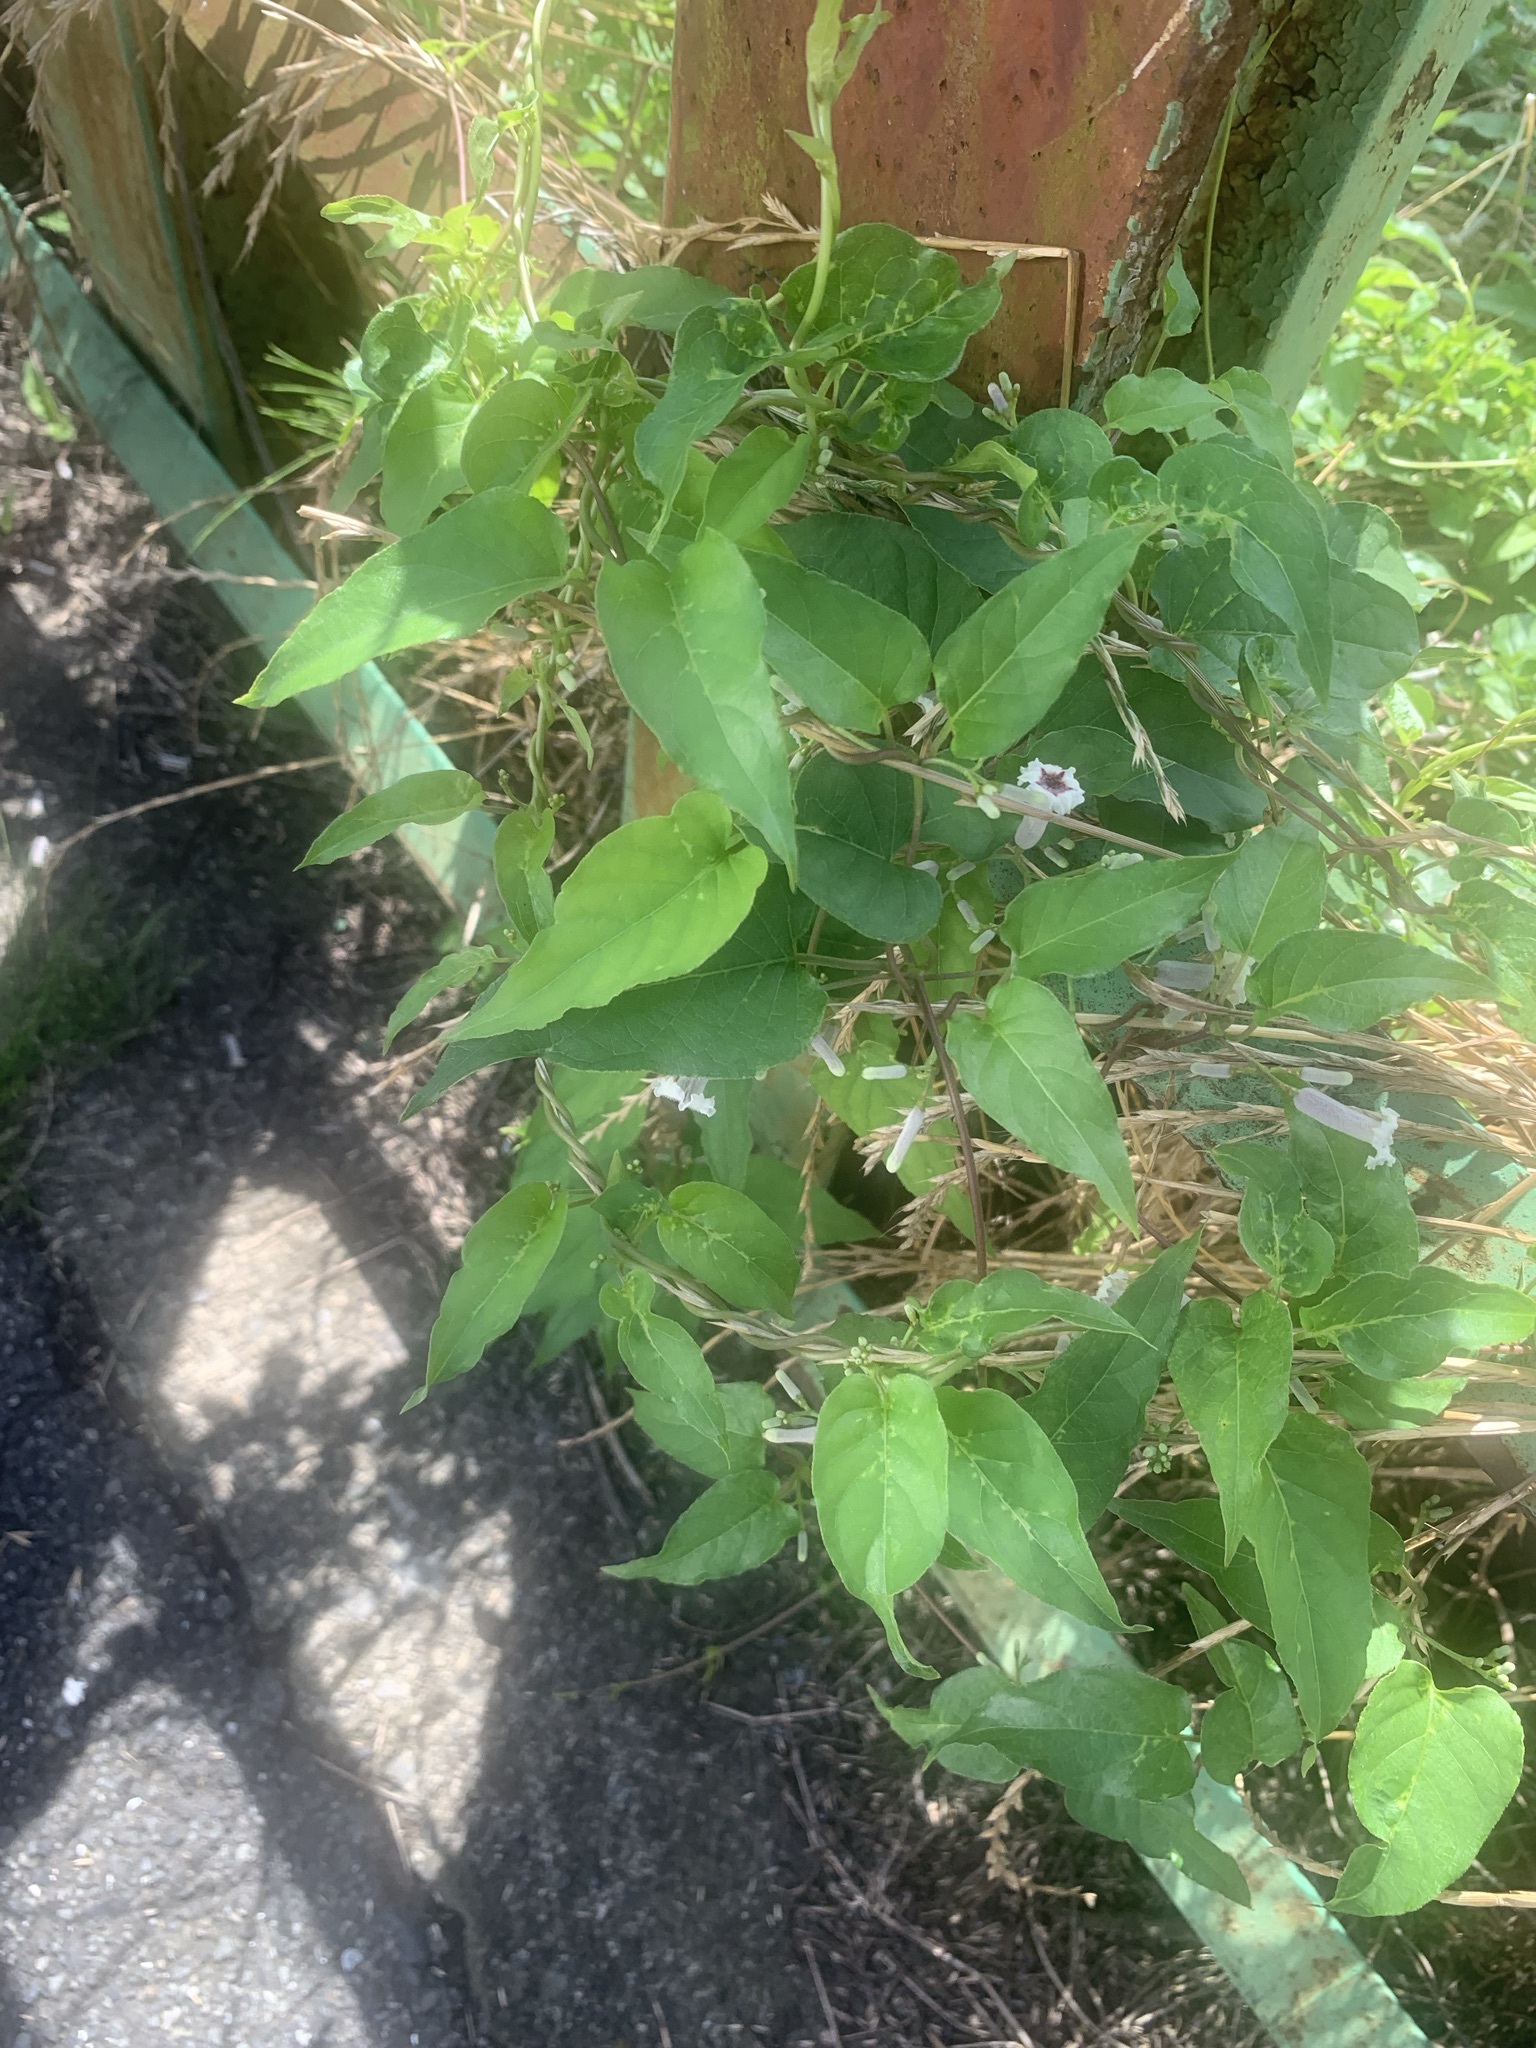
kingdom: Plantae
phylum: Tracheophyta
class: Magnoliopsida
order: Gentianales
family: Rubiaceae
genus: Paederia
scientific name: Paederia foetida
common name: Stinkvine
